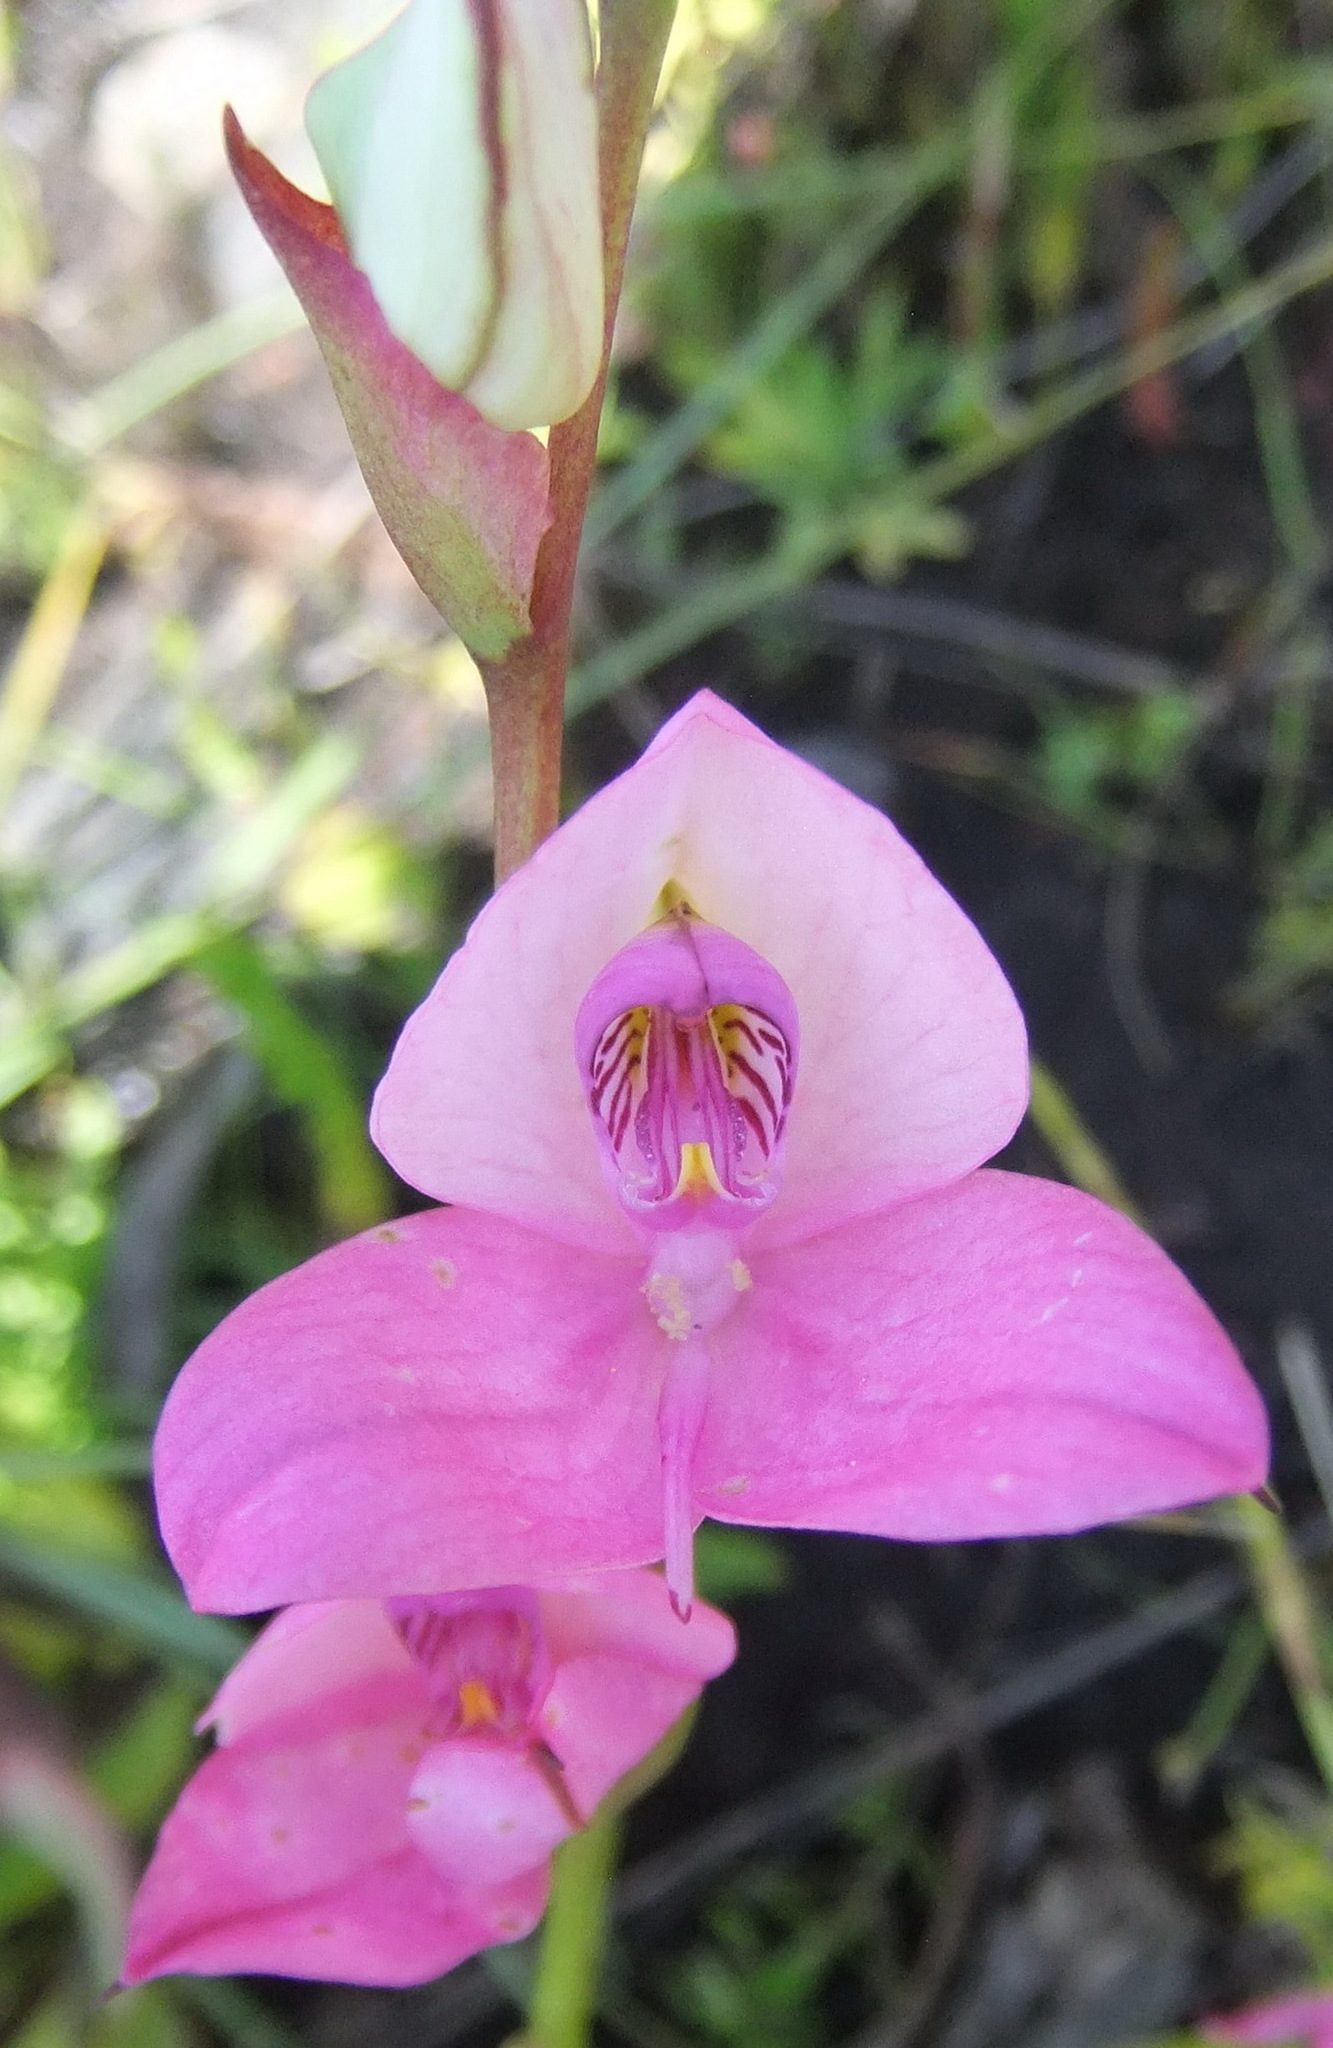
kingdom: Plantae
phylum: Tracheophyta
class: Liliopsida
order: Asparagales
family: Orchidaceae
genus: Disa
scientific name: Disa racemosa
